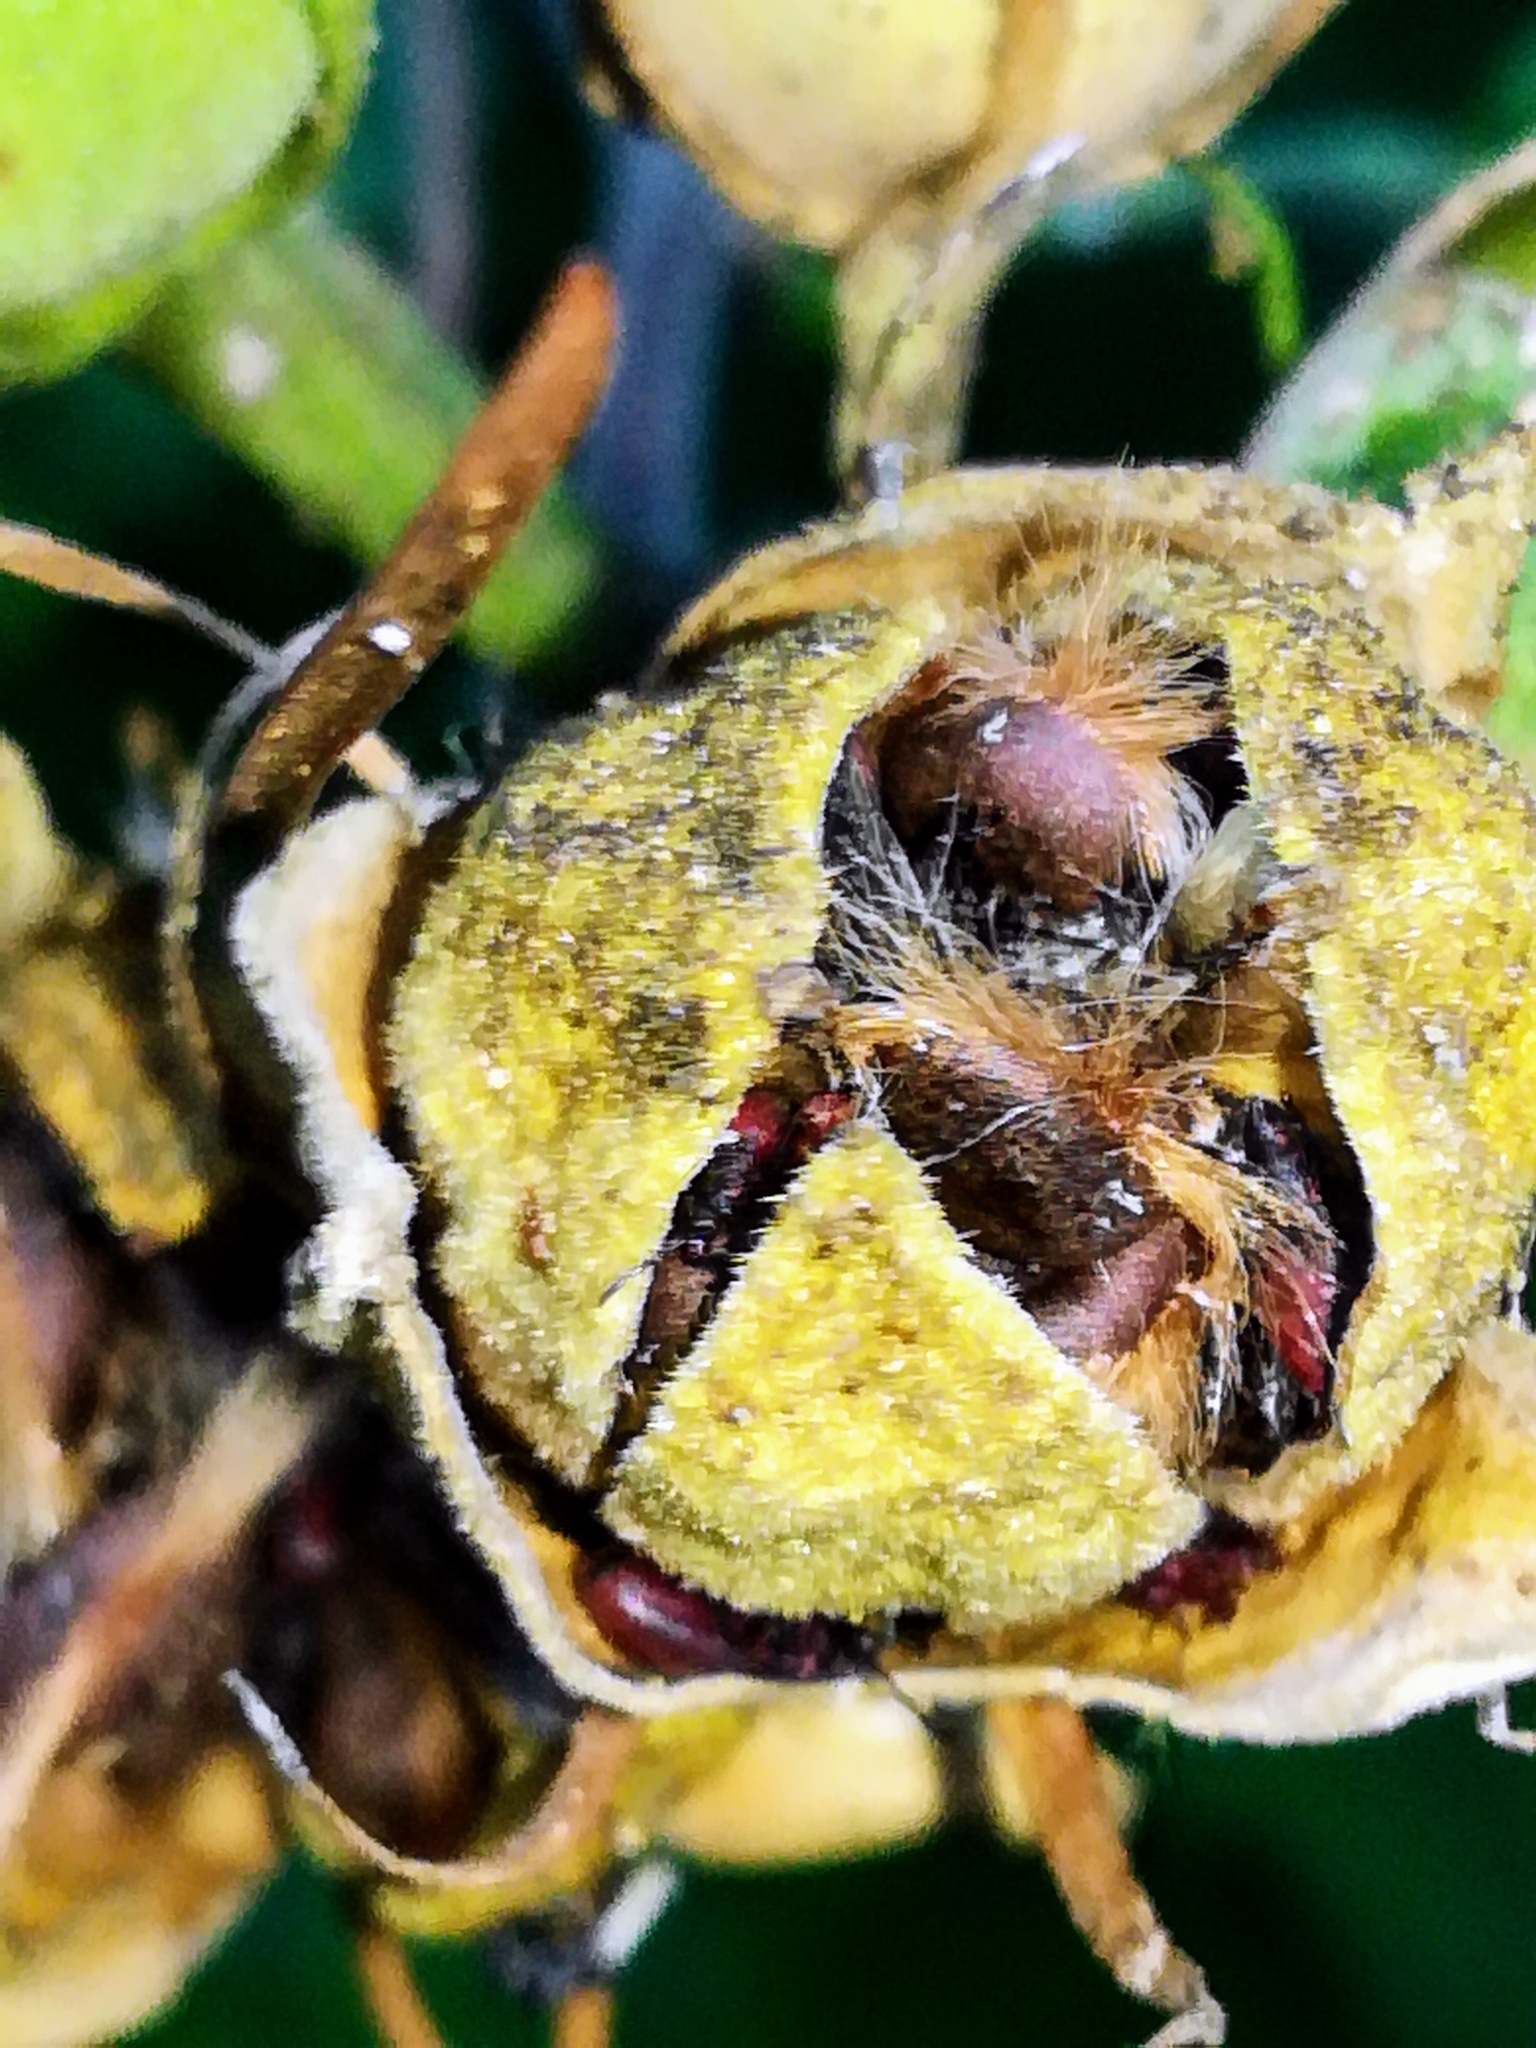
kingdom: Animalia
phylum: Arthropoda
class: Insecta
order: Hemiptera
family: Pyrrhocoridae
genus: Pyrrhocoris
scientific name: Pyrrhocoris apterus
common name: Firebug
